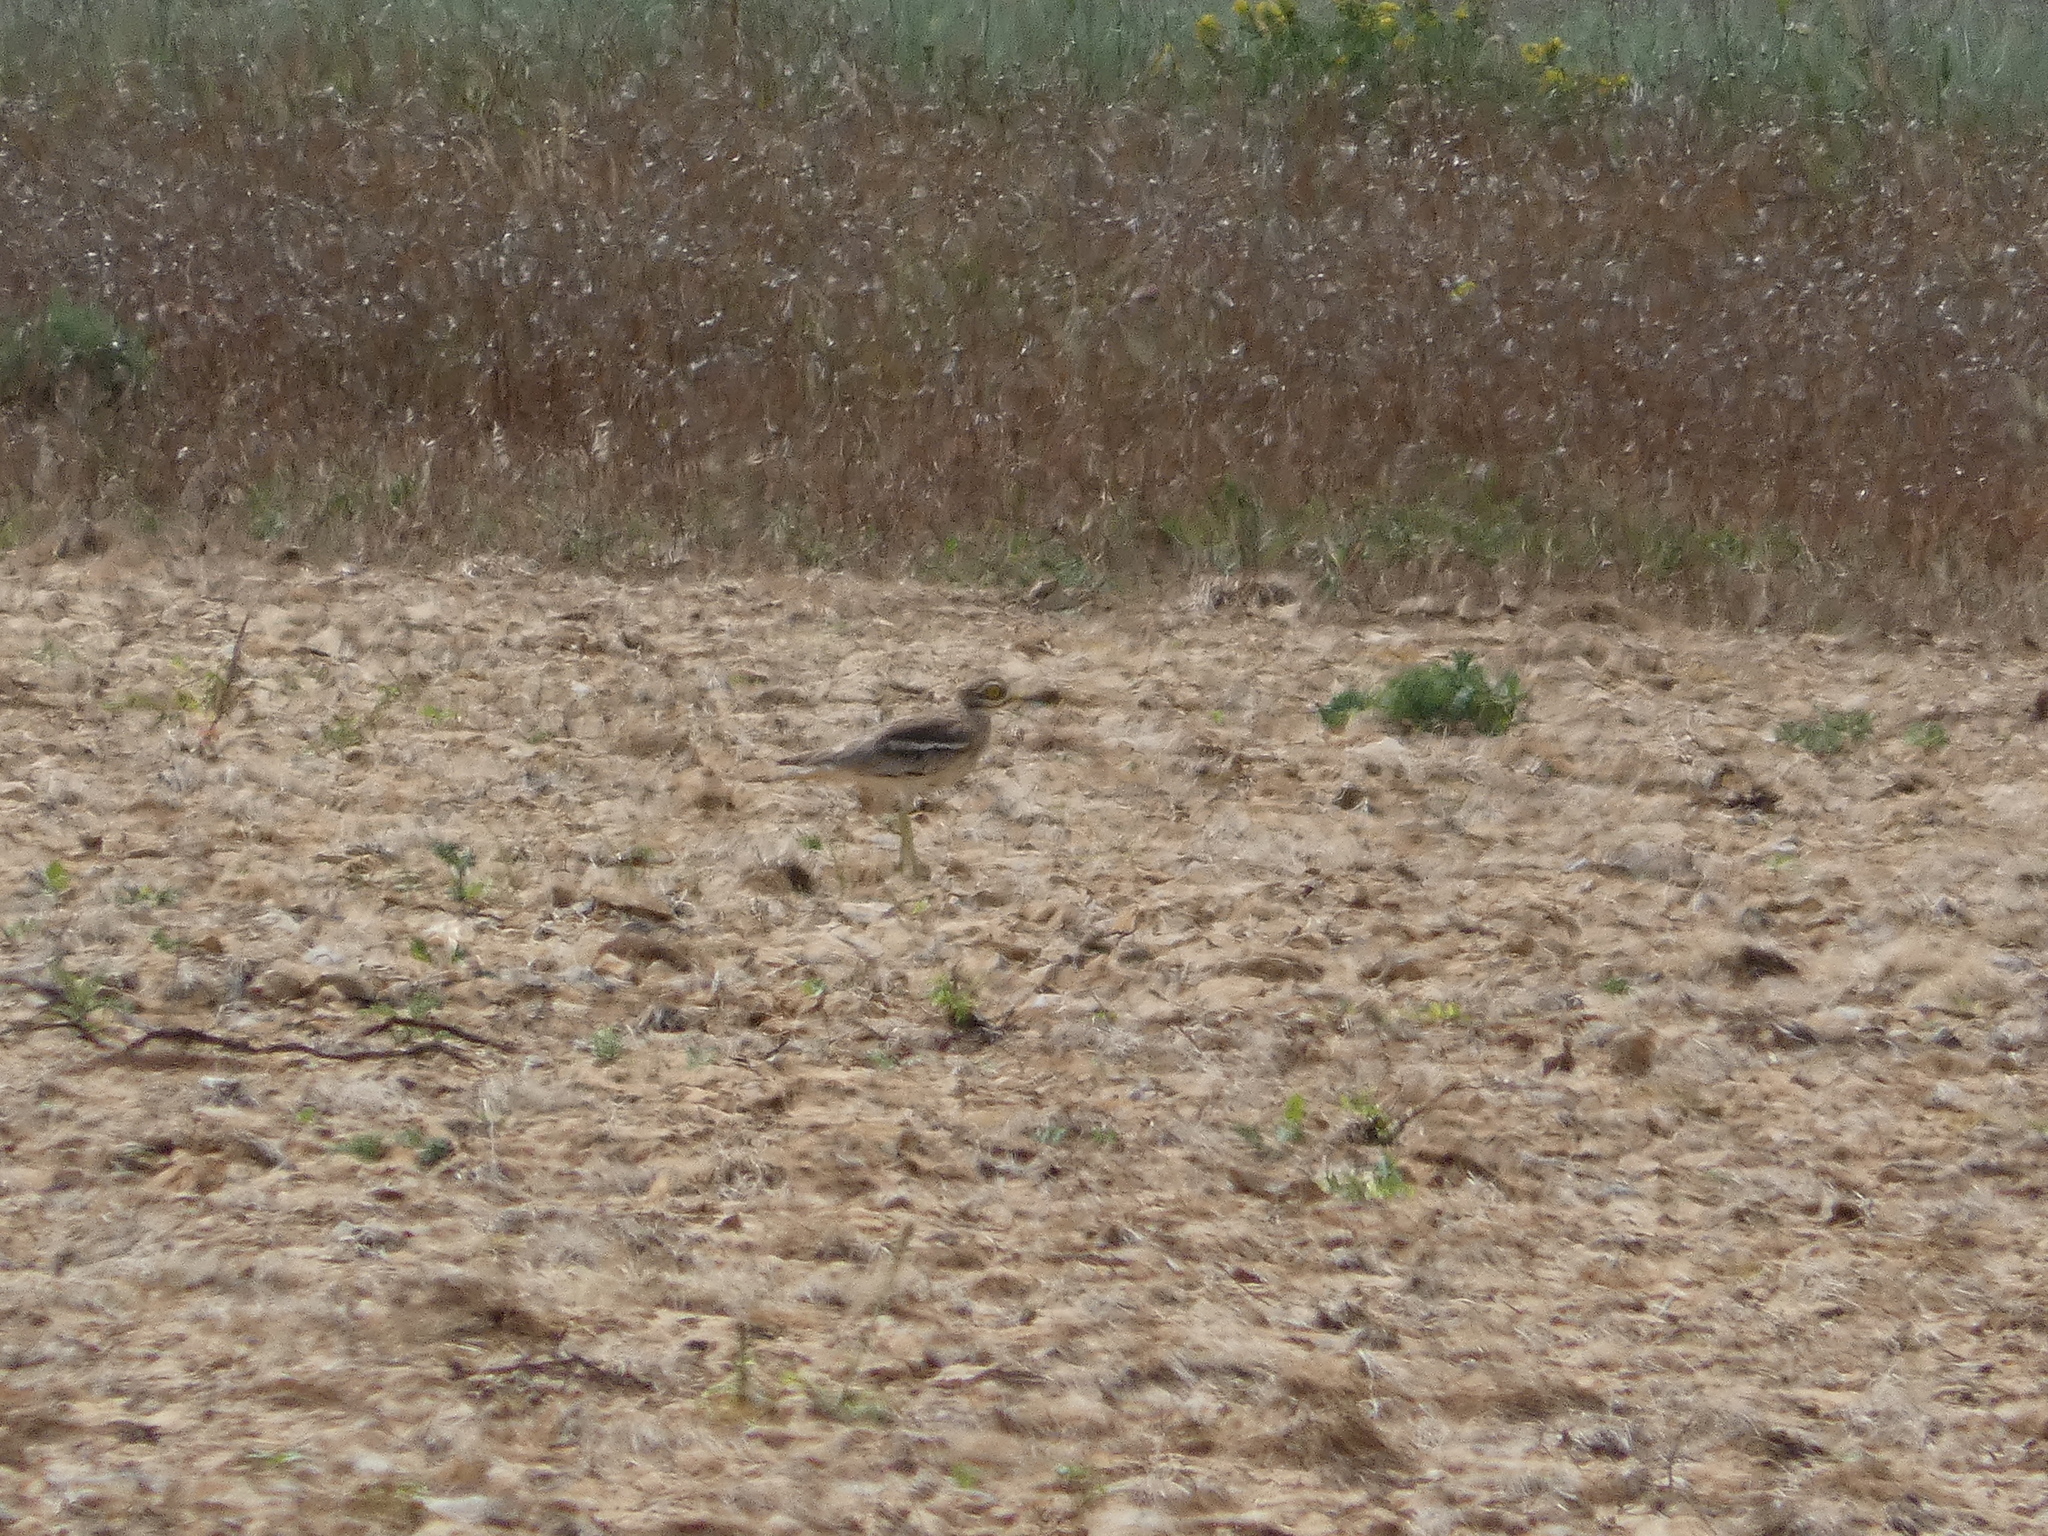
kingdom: Animalia
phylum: Chordata
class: Aves
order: Charadriiformes
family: Burhinidae
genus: Burhinus
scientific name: Burhinus oedicnemus
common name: Eurasian stone-curlew
